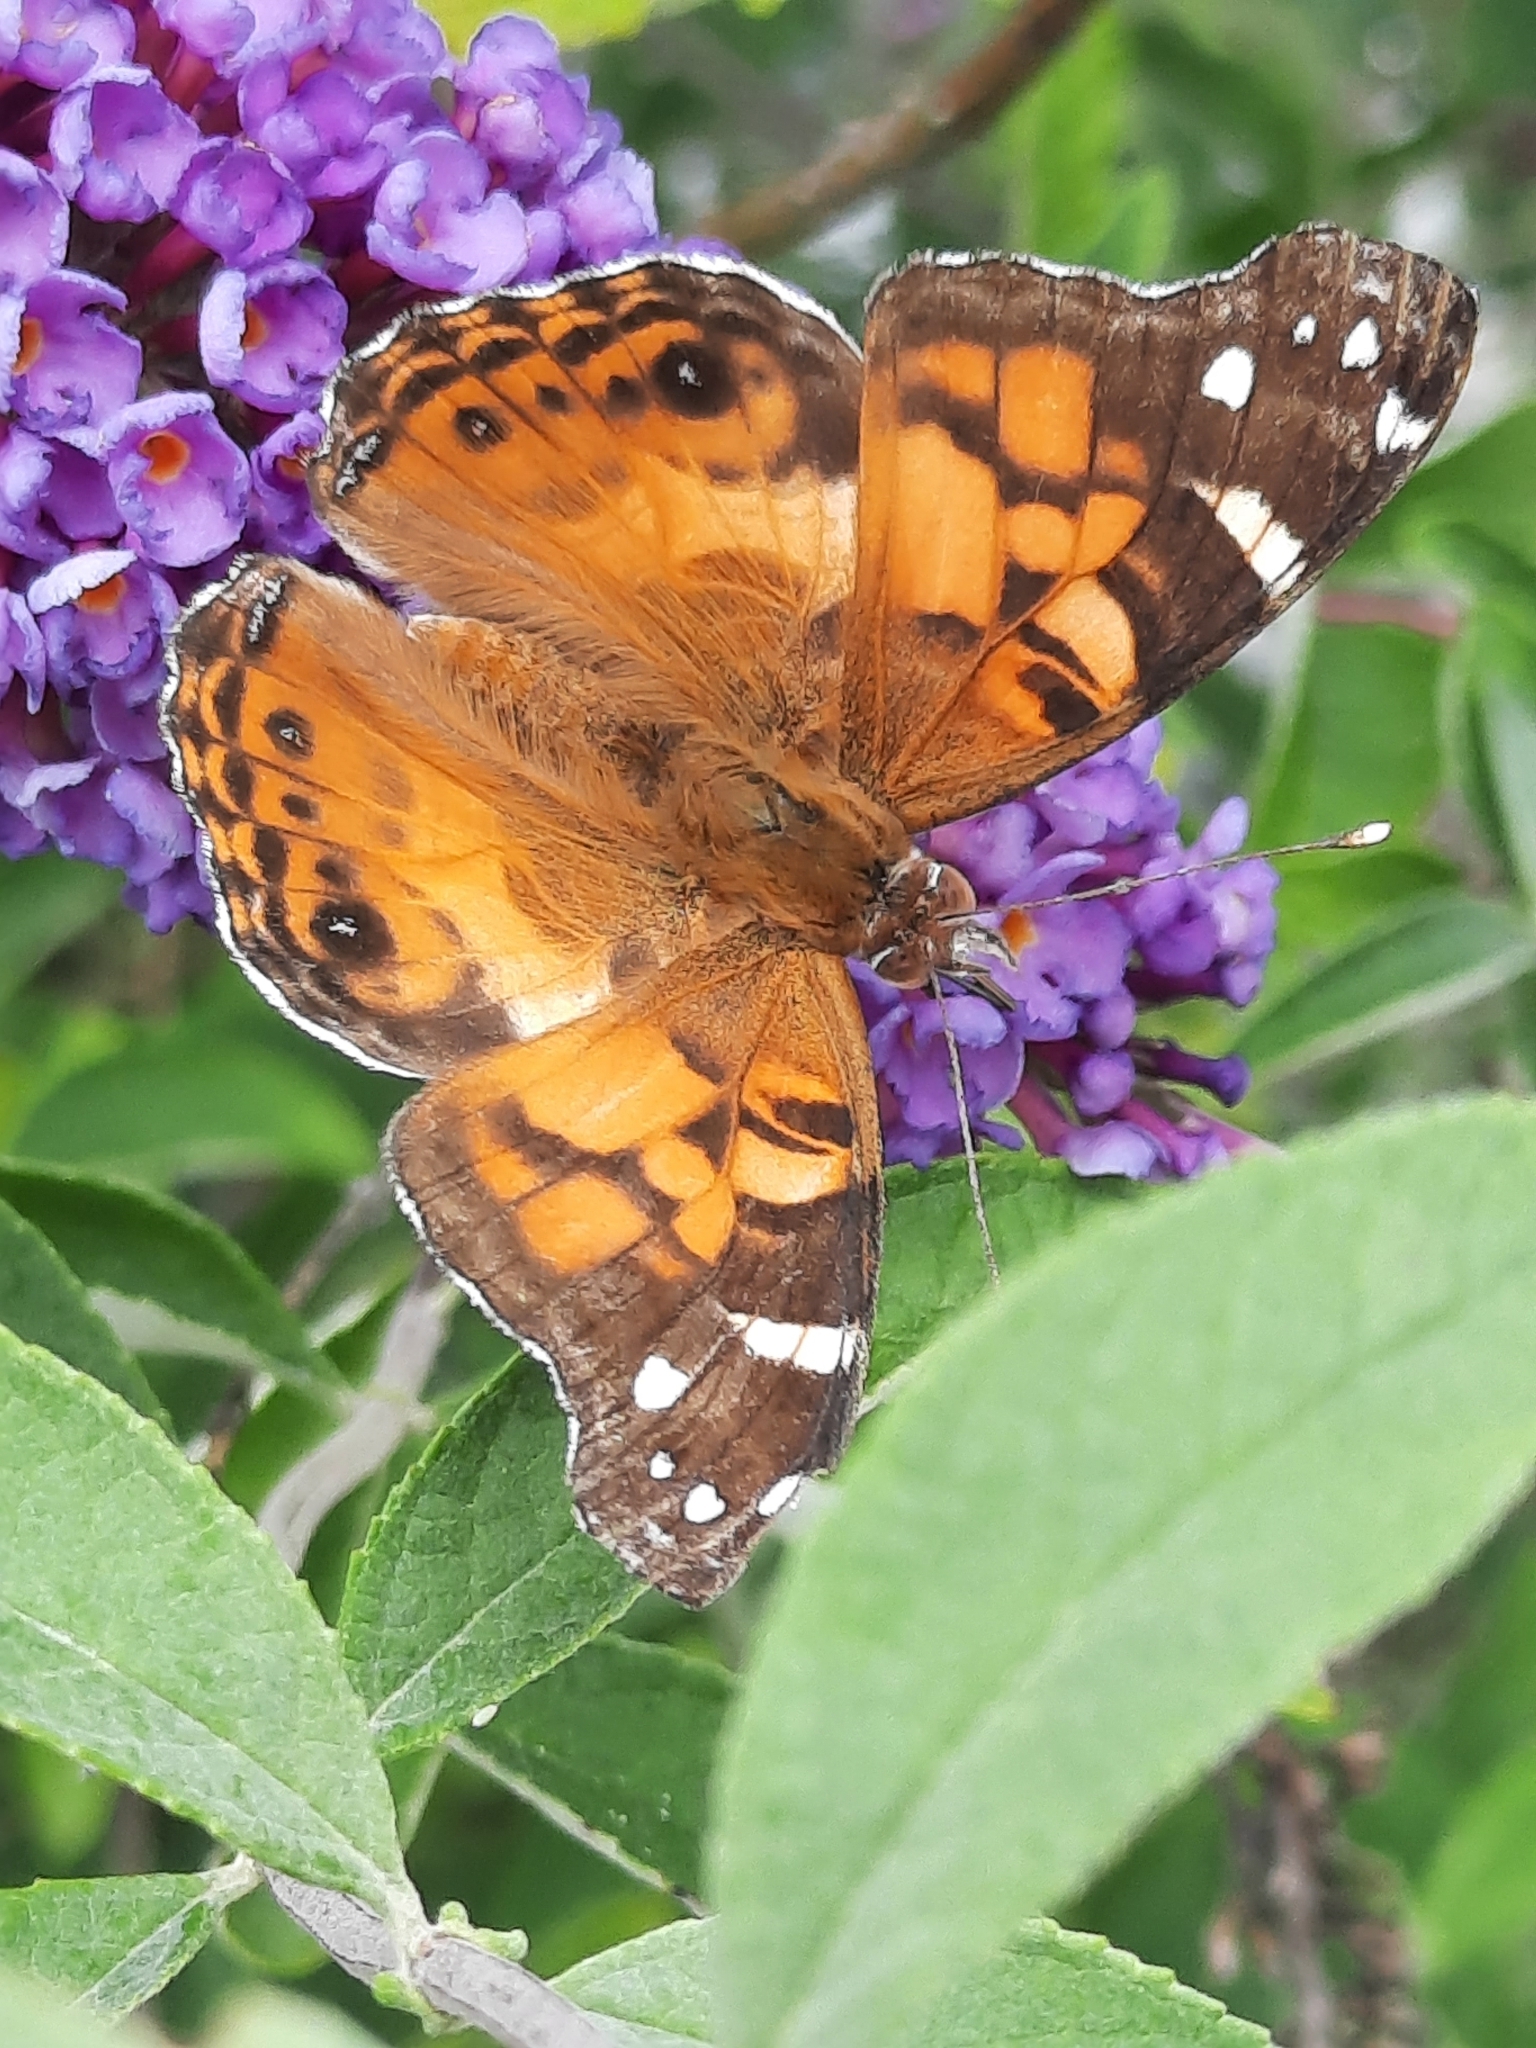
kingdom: Animalia
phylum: Arthropoda
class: Insecta
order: Lepidoptera
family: Nymphalidae
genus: Vanessa
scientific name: Vanessa virginiensis
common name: American lady
